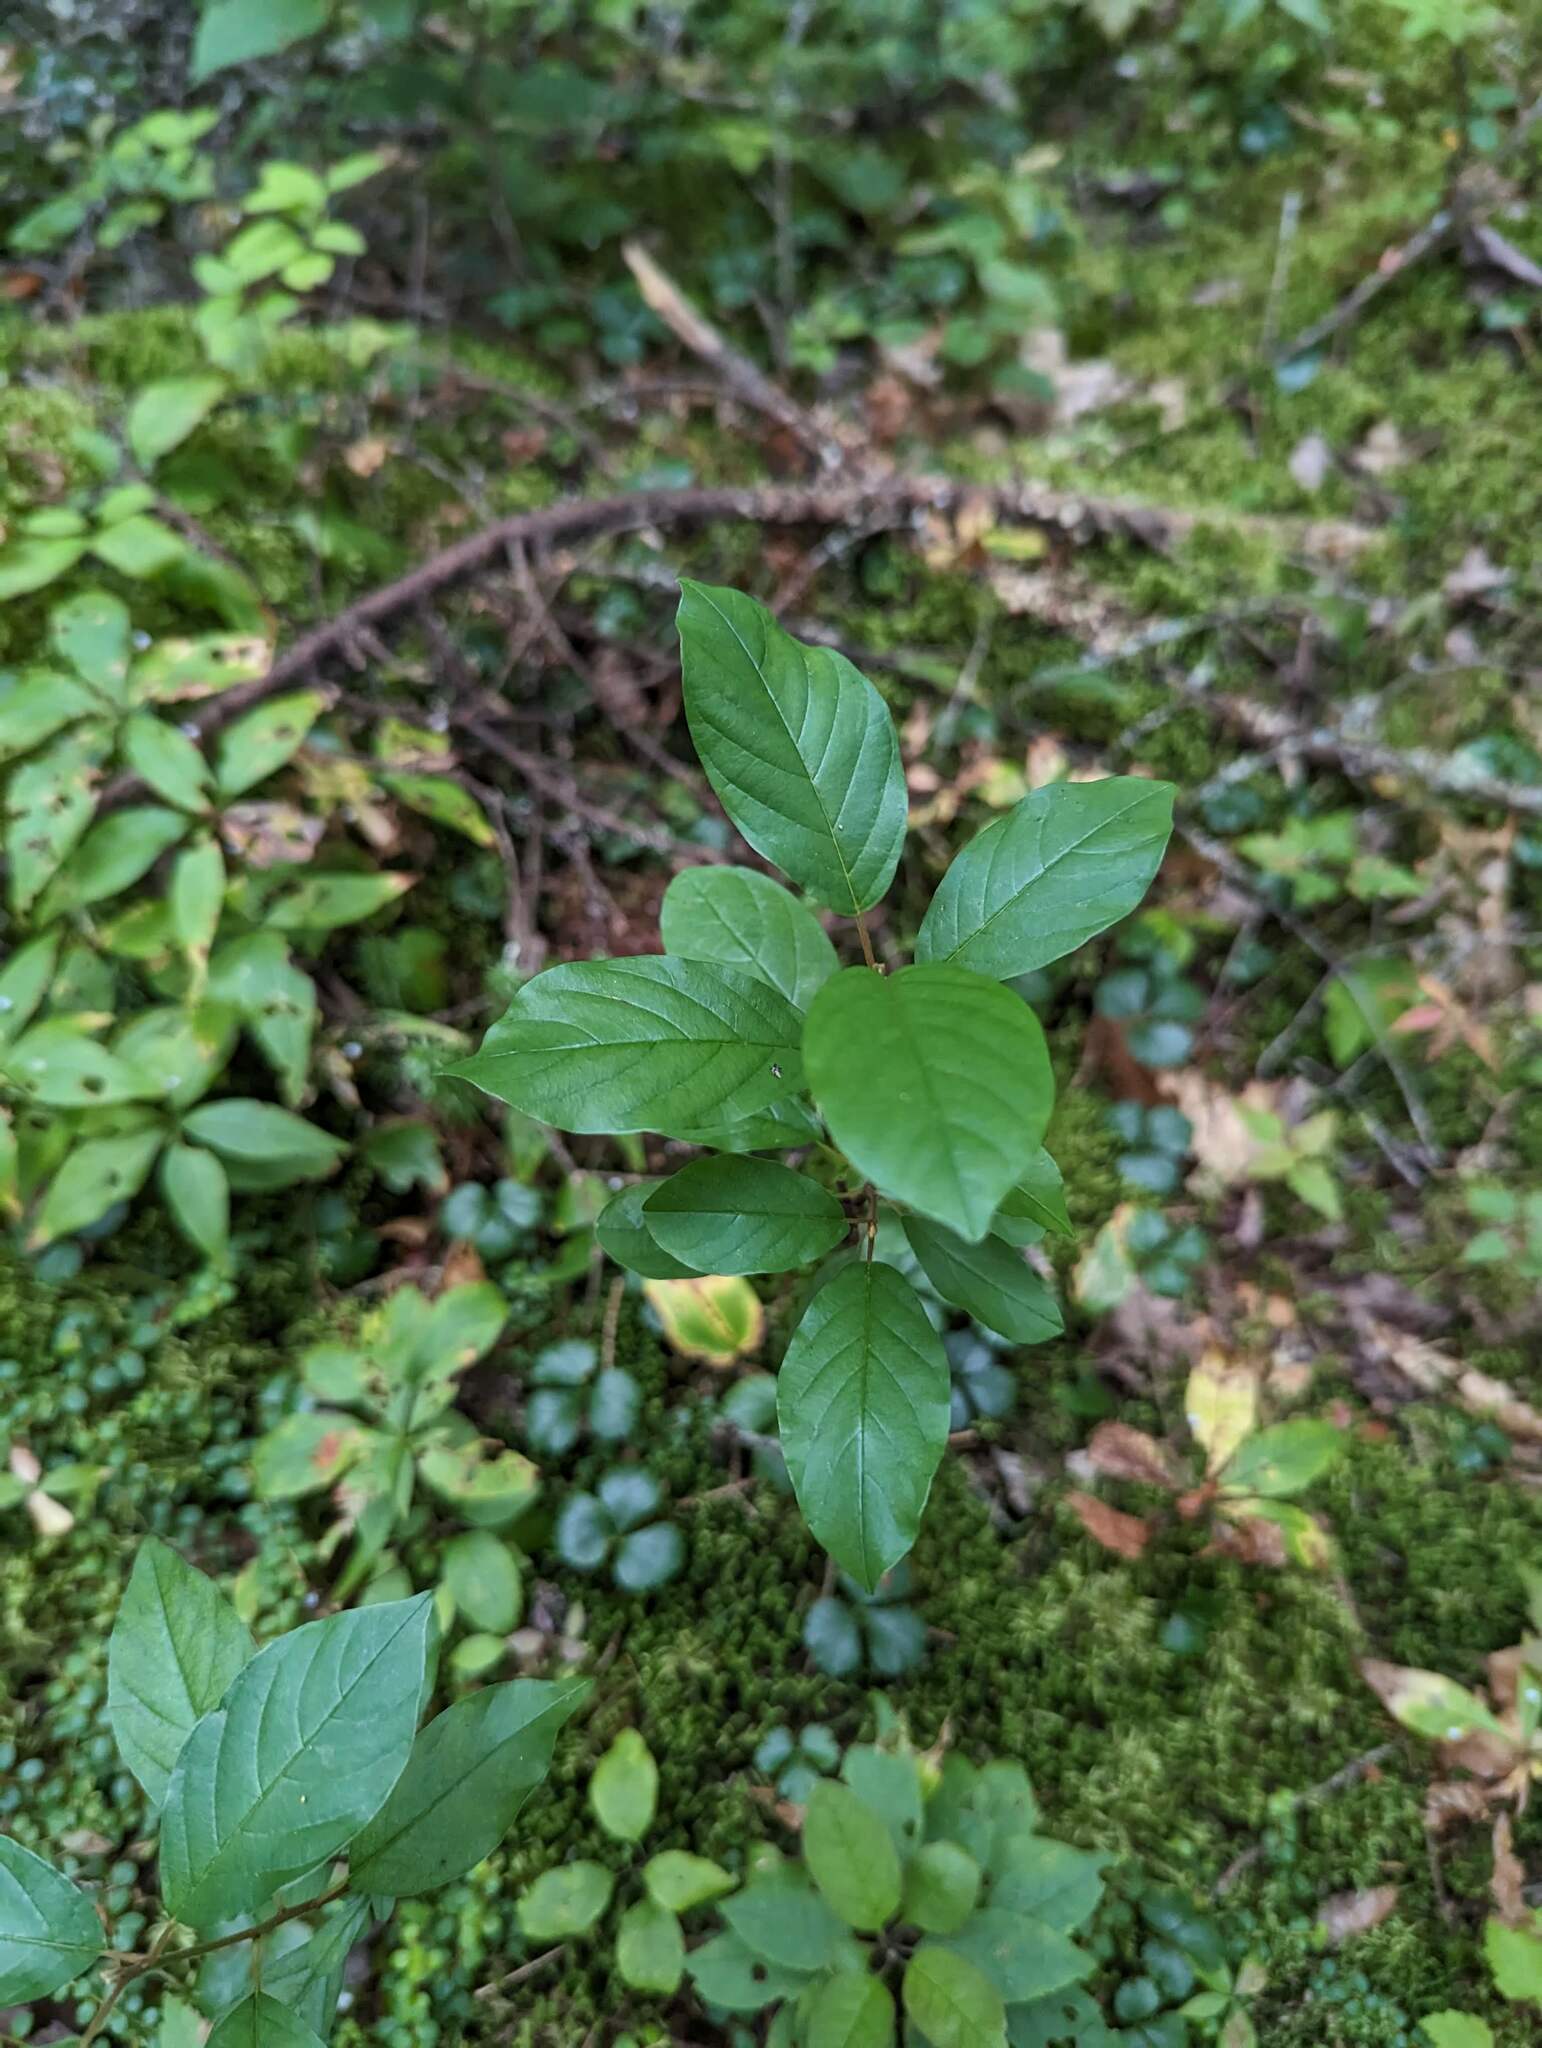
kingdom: Plantae
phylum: Tracheophyta
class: Magnoliopsida
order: Rosales
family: Rhamnaceae
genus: Frangula
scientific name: Frangula alnus
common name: Alder buckthorn
